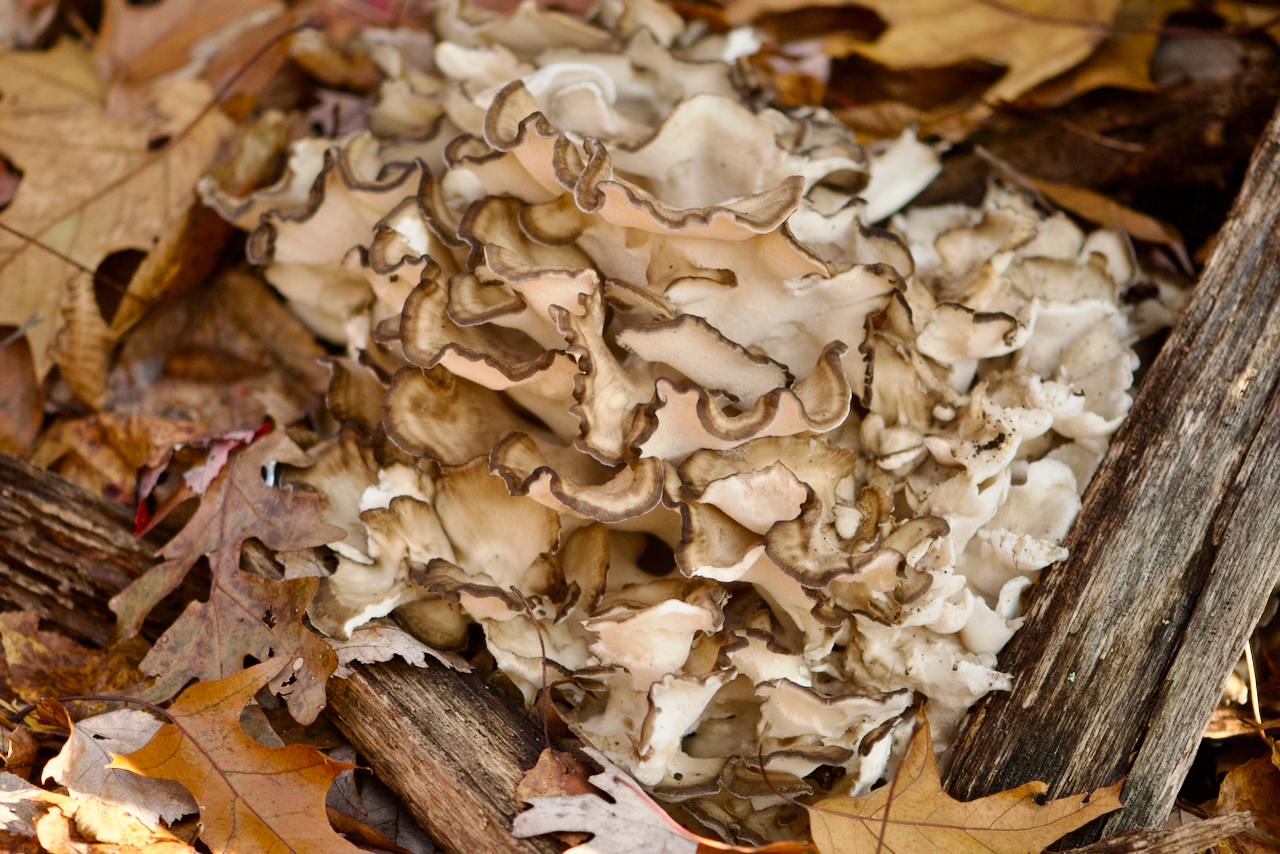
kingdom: Fungi
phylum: Basidiomycota
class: Agaricomycetes
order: Polyporales
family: Grifolaceae
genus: Grifola
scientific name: Grifola frondosa
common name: Hen of the woods
